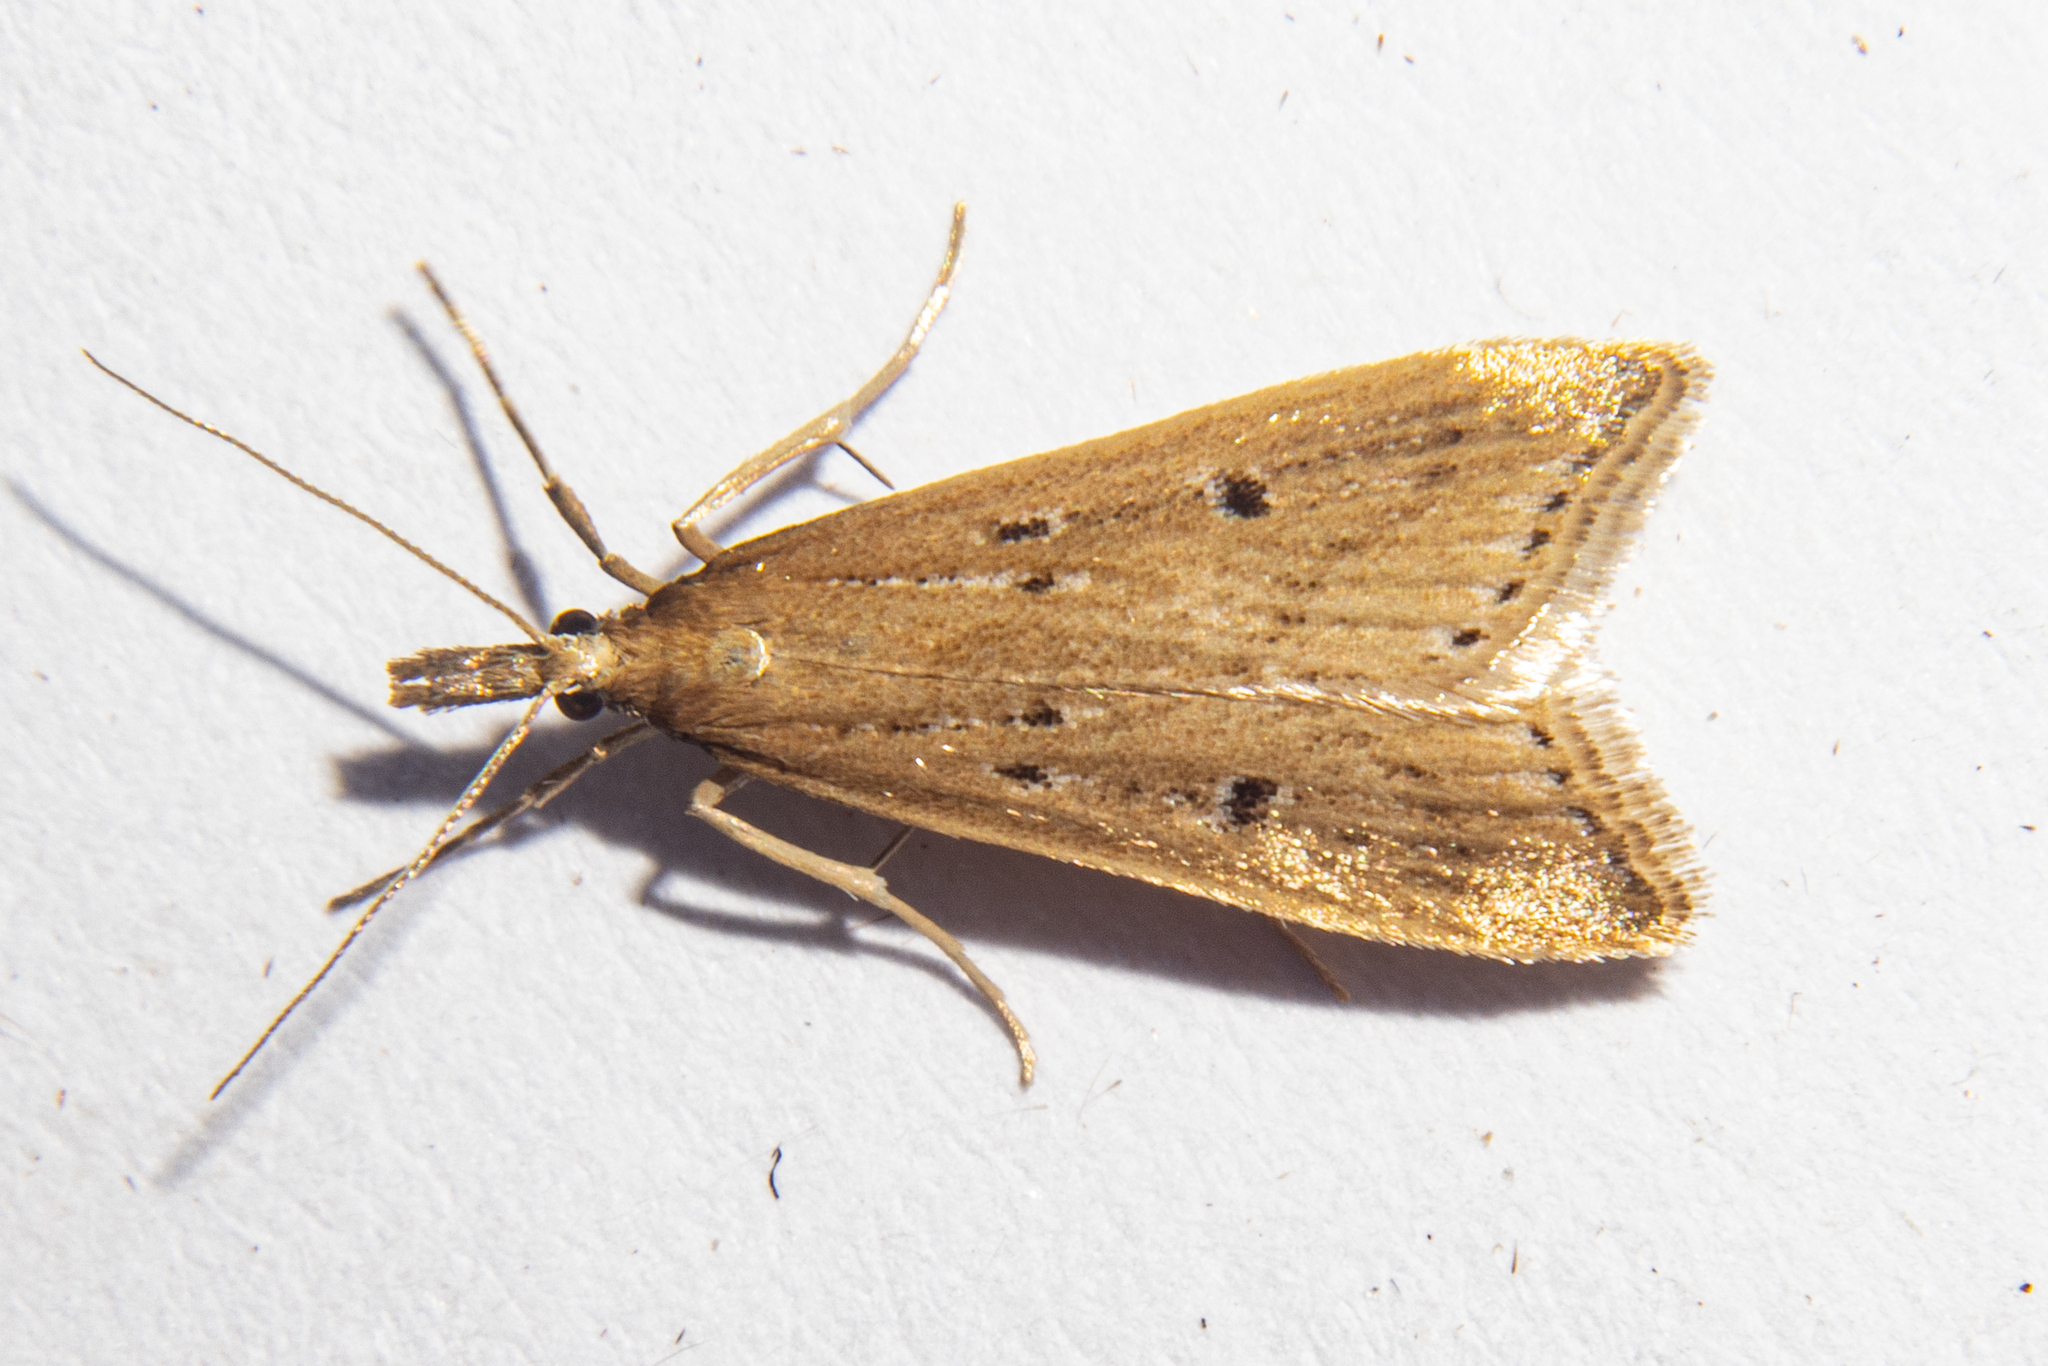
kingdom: Animalia
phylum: Arthropoda
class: Insecta
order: Lepidoptera
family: Crambidae
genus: Antiscopa
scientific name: Antiscopa elaphra
